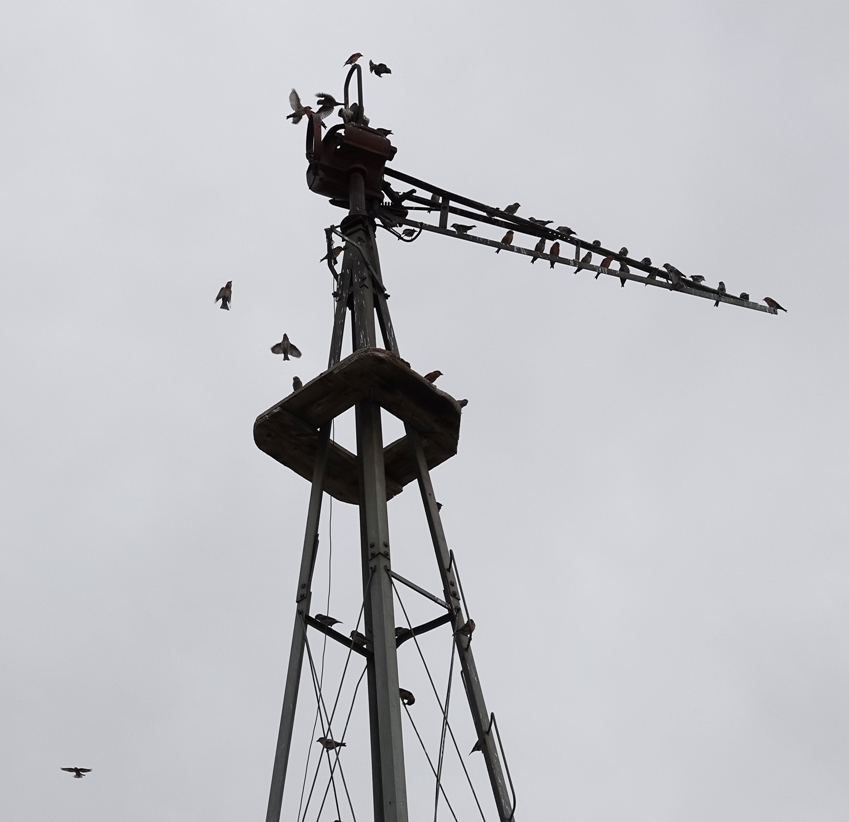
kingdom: Animalia
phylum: Chordata
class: Aves
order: Passeriformes
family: Fringillidae
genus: Loxia
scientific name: Loxia curvirostra
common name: Red crossbill
